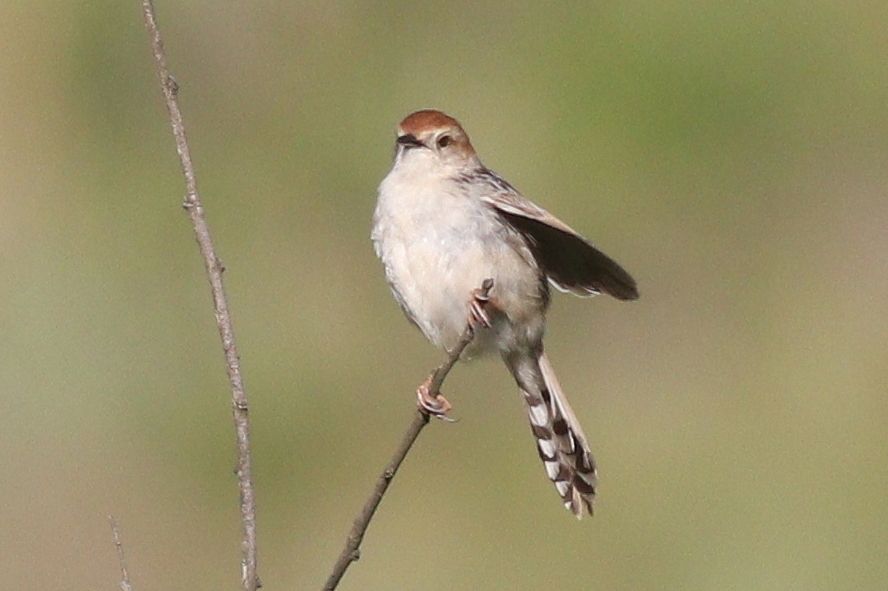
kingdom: Animalia
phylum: Chordata
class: Aves
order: Passeriformes
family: Cisticolidae
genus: Cisticola
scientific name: Cisticola tinniens
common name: Levaillant's cisticola
